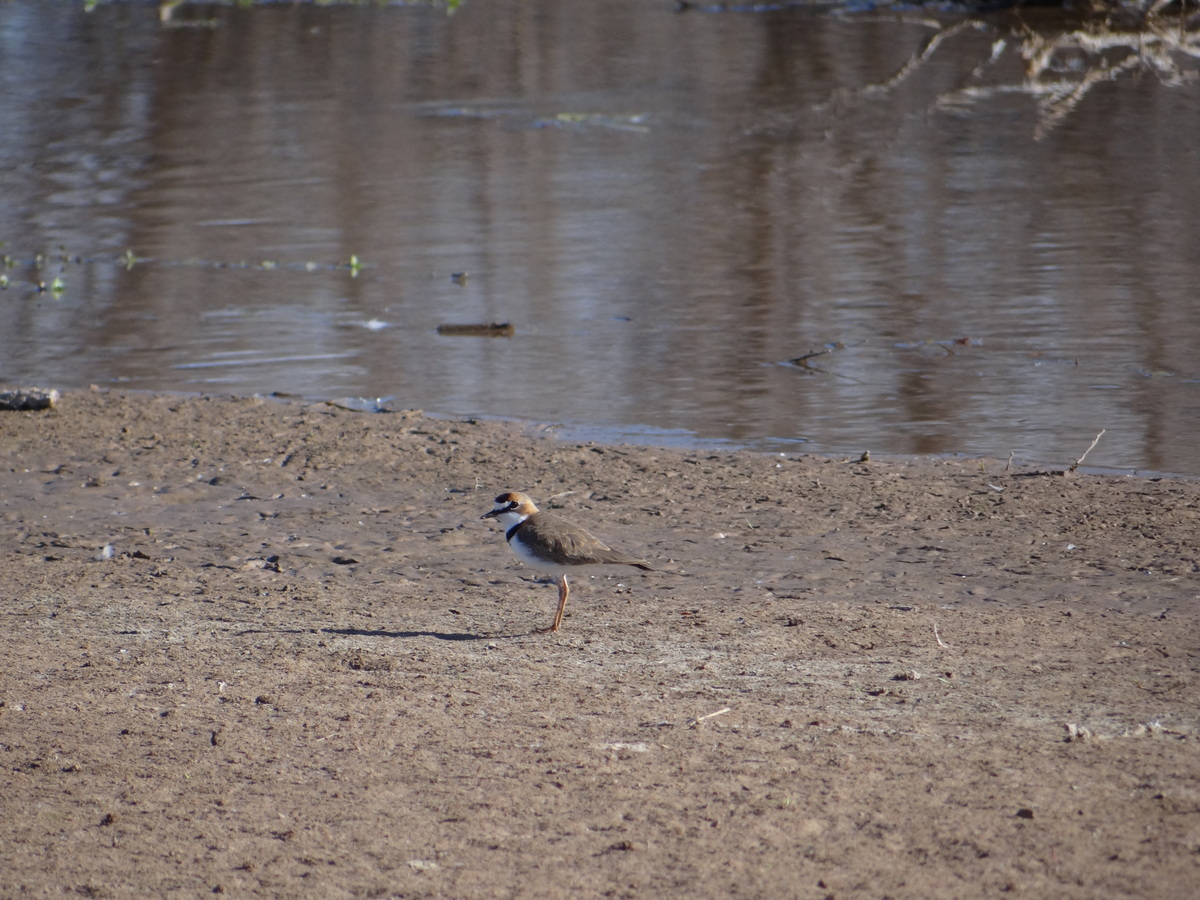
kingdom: Animalia
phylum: Chordata
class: Aves
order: Charadriiformes
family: Charadriidae
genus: Anarhynchus
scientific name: Anarhynchus
